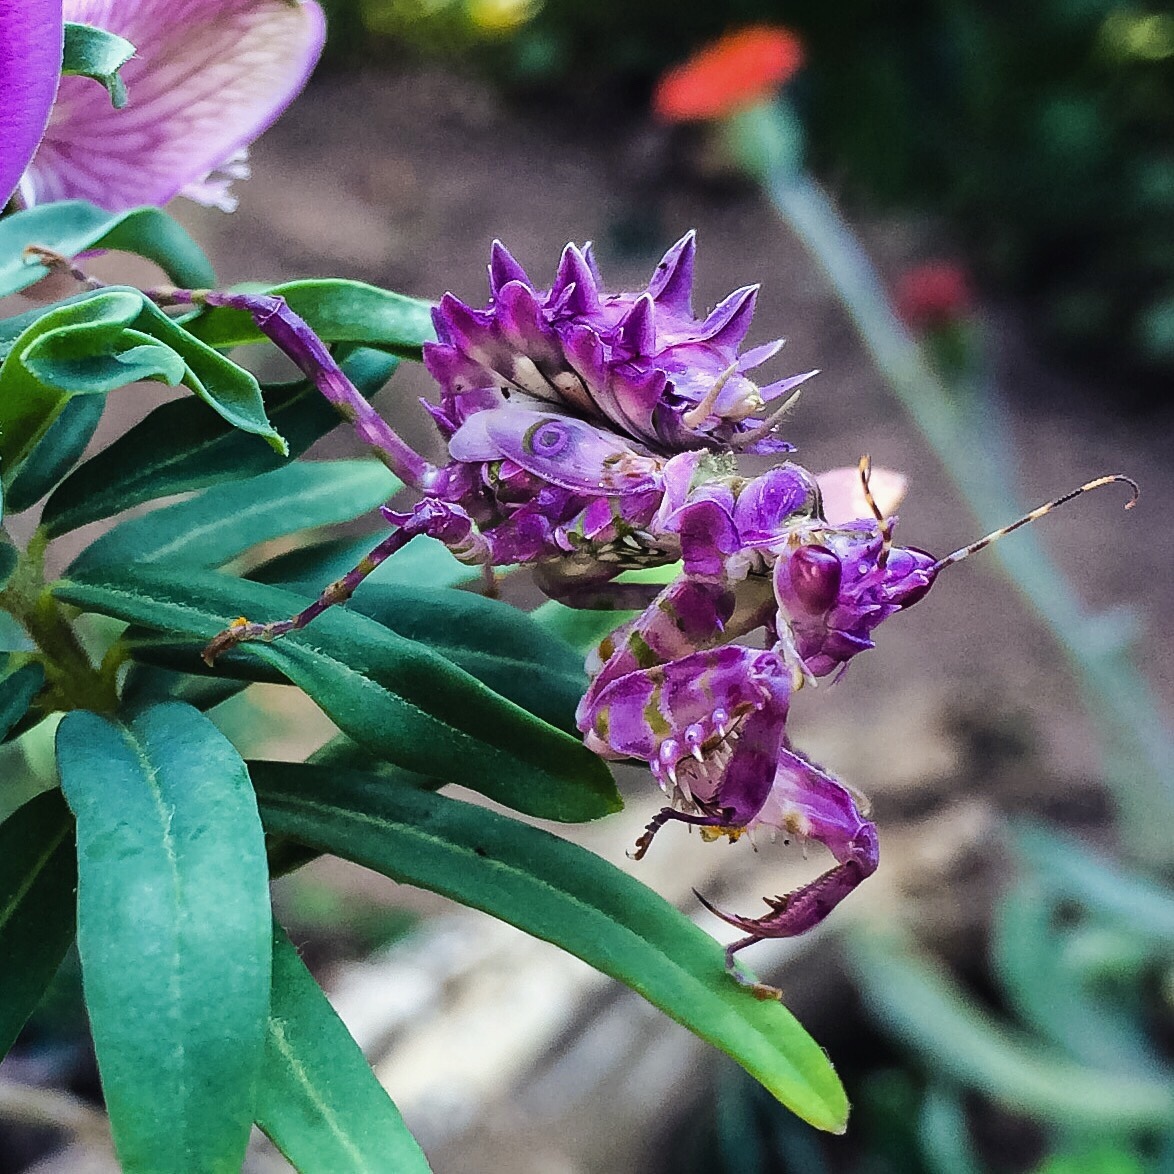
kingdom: Animalia
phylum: Arthropoda
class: Insecta
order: Mantodea
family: Hymenopodidae
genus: Pseudocreobotra
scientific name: Pseudocreobotra wahlbergi
